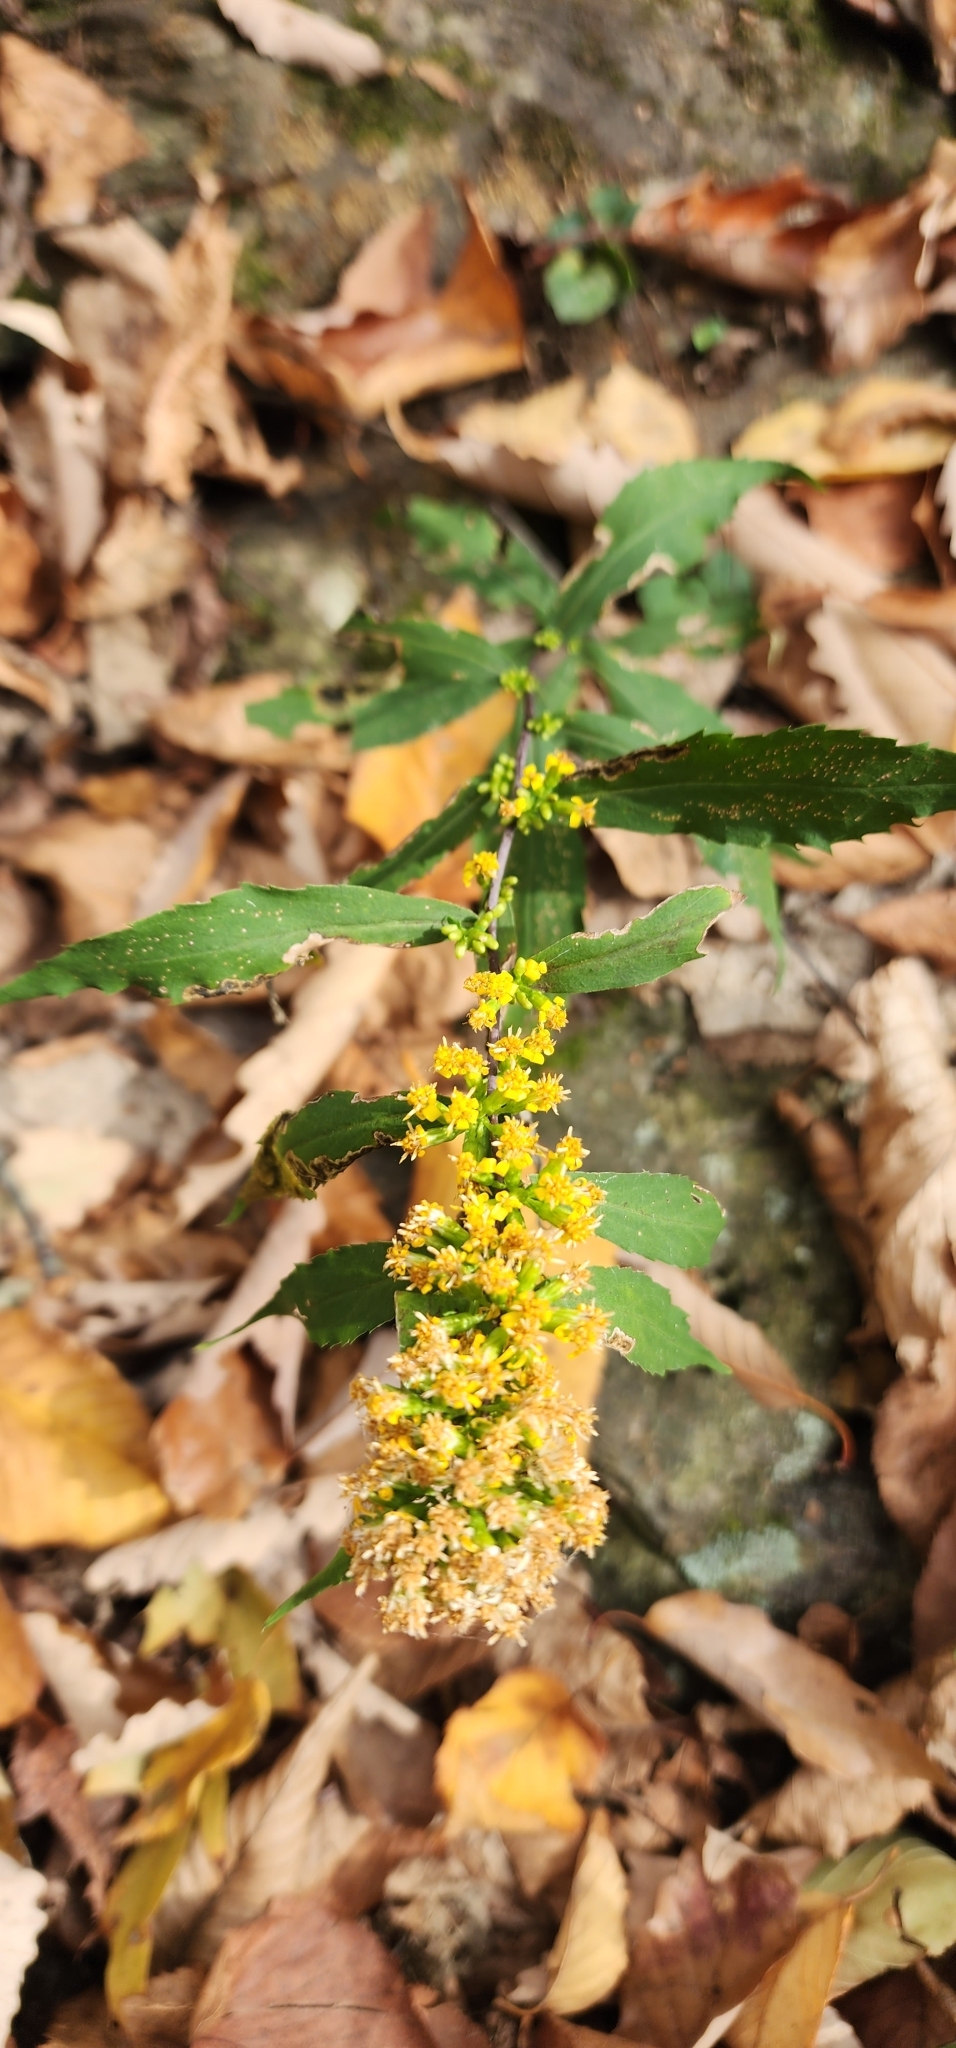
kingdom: Plantae
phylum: Tracheophyta
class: Magnoliopsida
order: Asterales
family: Asteraceae
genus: Solidago
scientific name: Solidago caesia
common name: Woodland goldenrod
